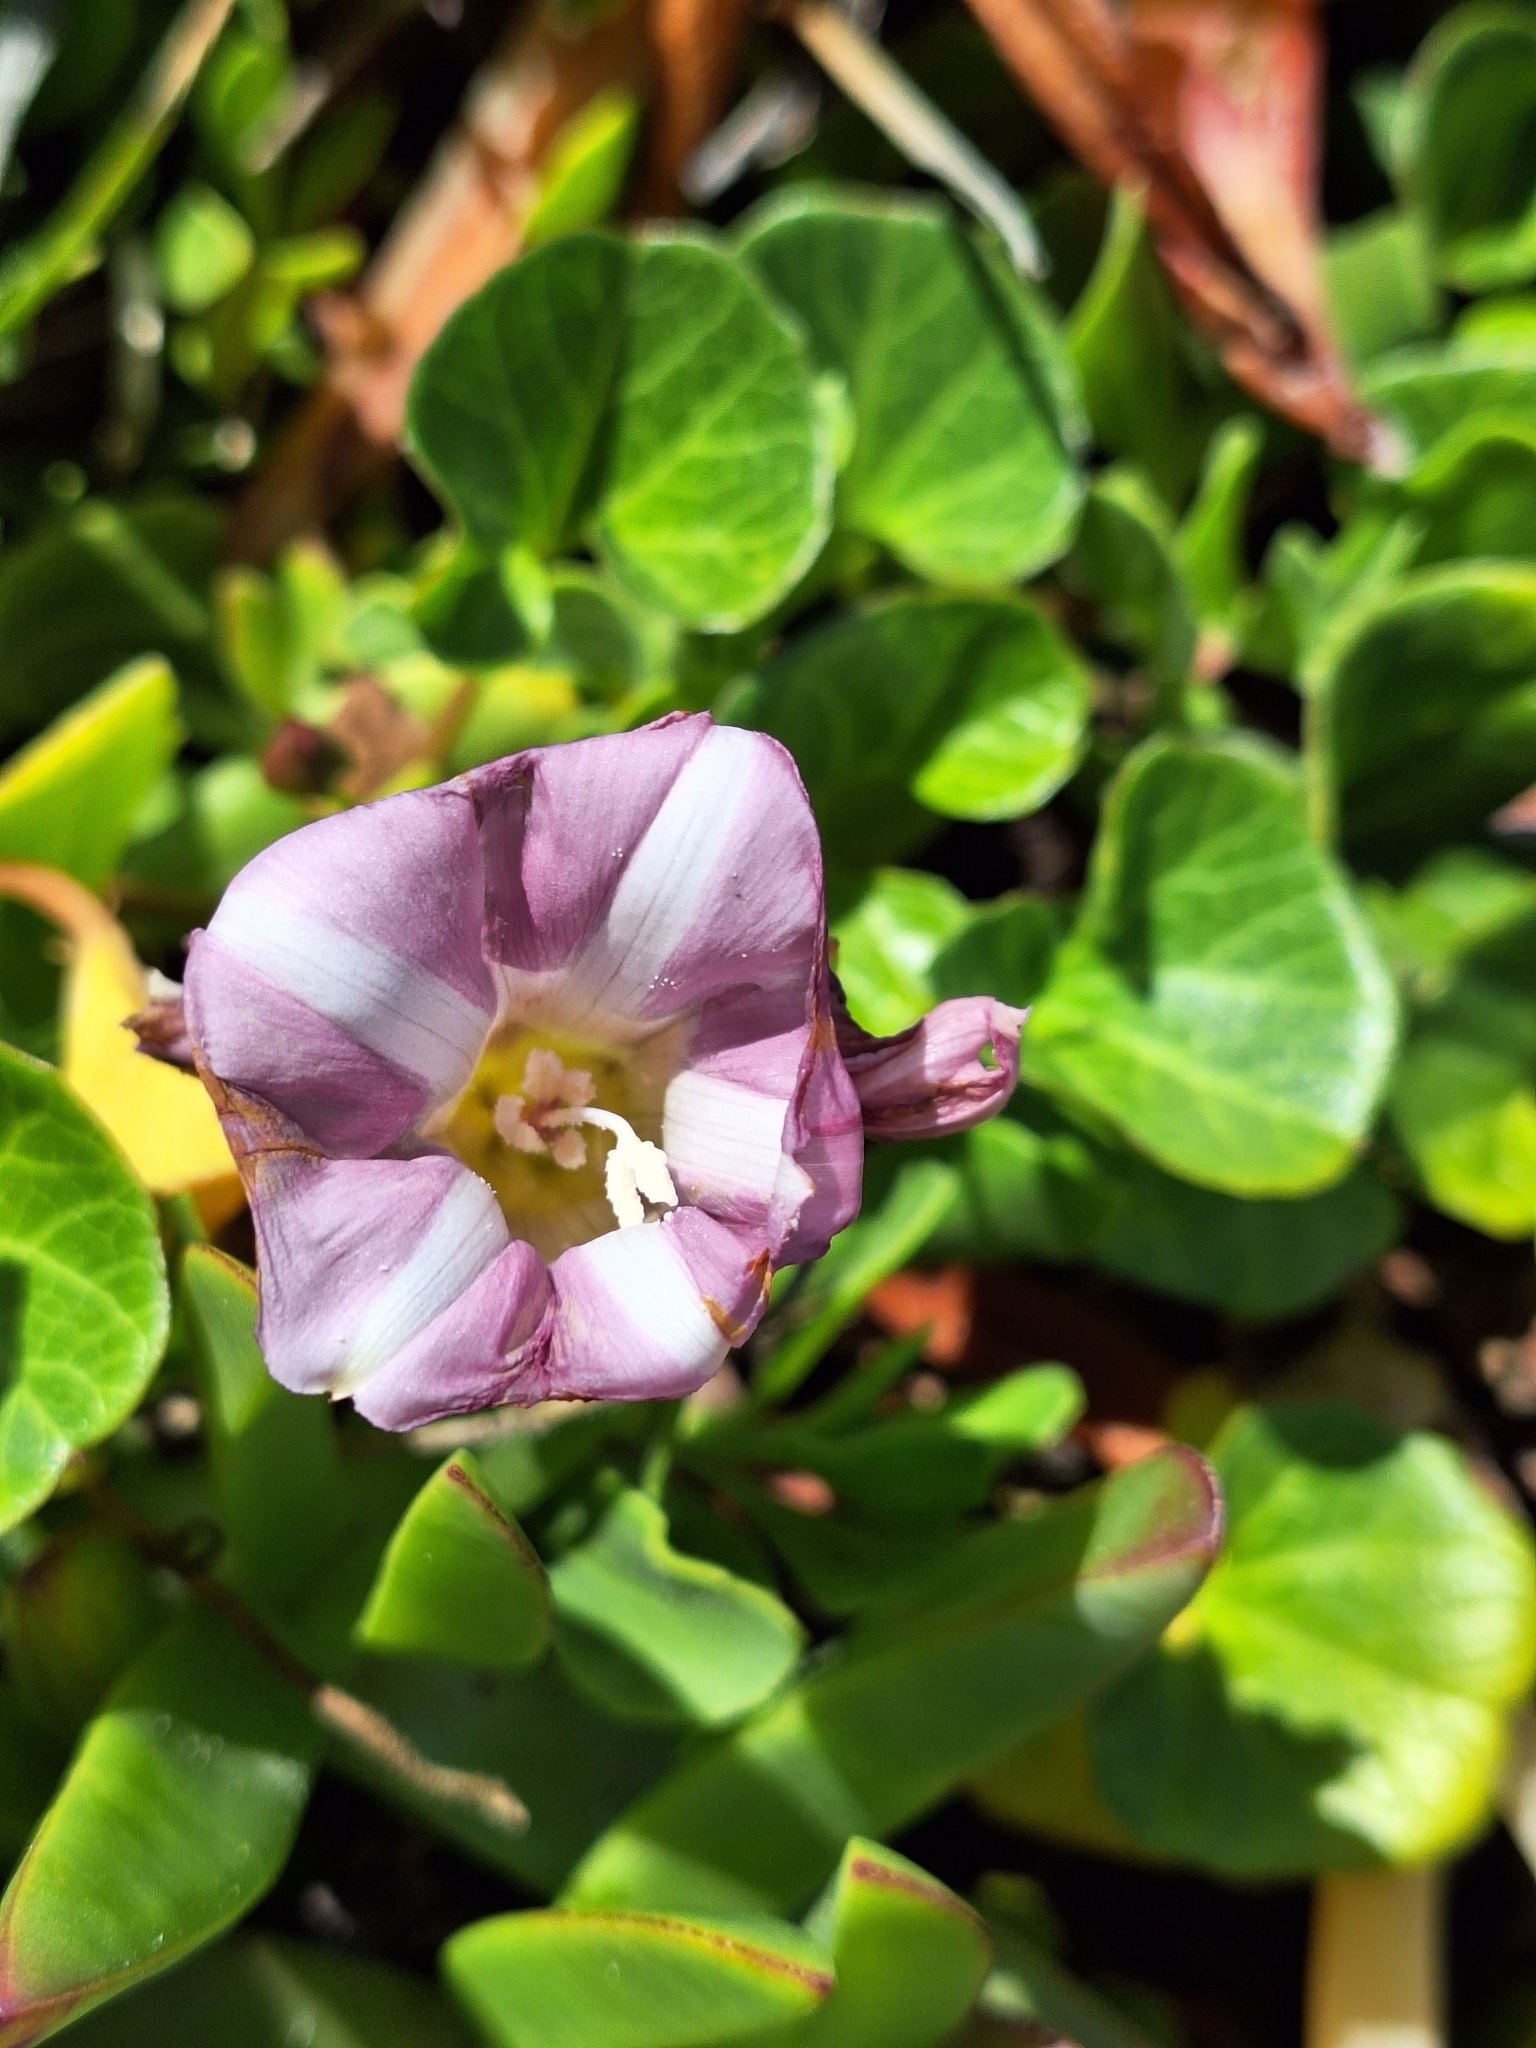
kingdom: Plantae
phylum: Tracheophyta
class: Magnoliopsida
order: Solanales
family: Convolvulaceae
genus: Calystegia
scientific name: Calystegia soldanella
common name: Sea bindweed
